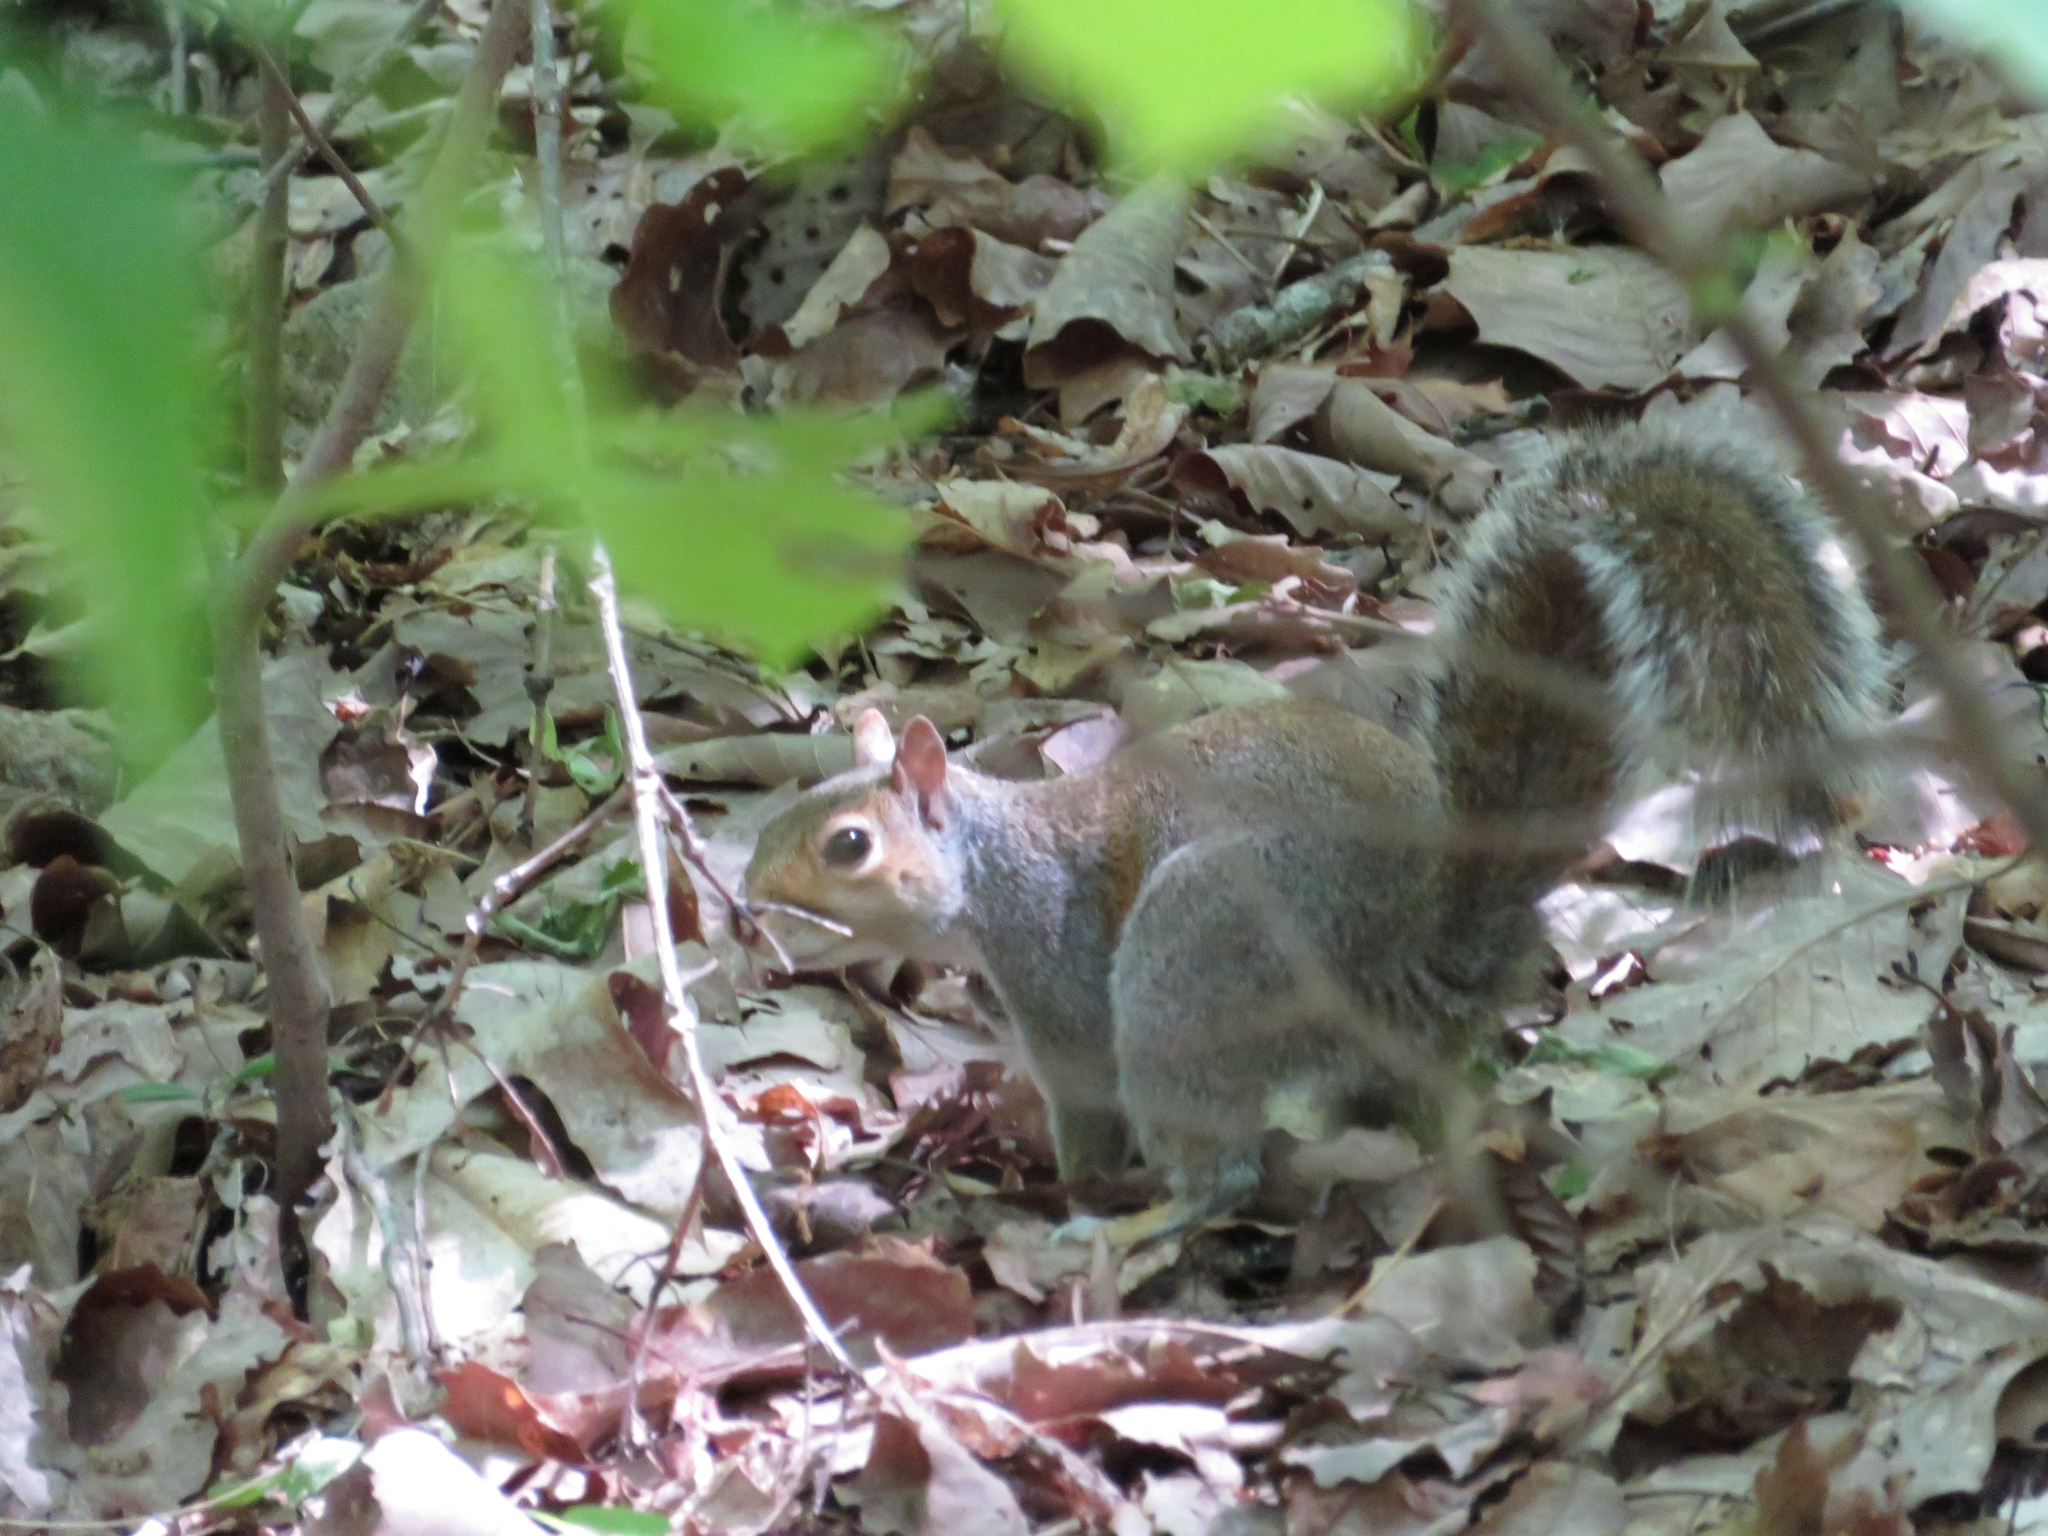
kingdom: Animalia
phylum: Chordata
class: Mammalia
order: Rodentia
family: Sciuridae
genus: Sciurus
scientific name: Sciurus carolinensis
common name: Eastern gray squirrel
